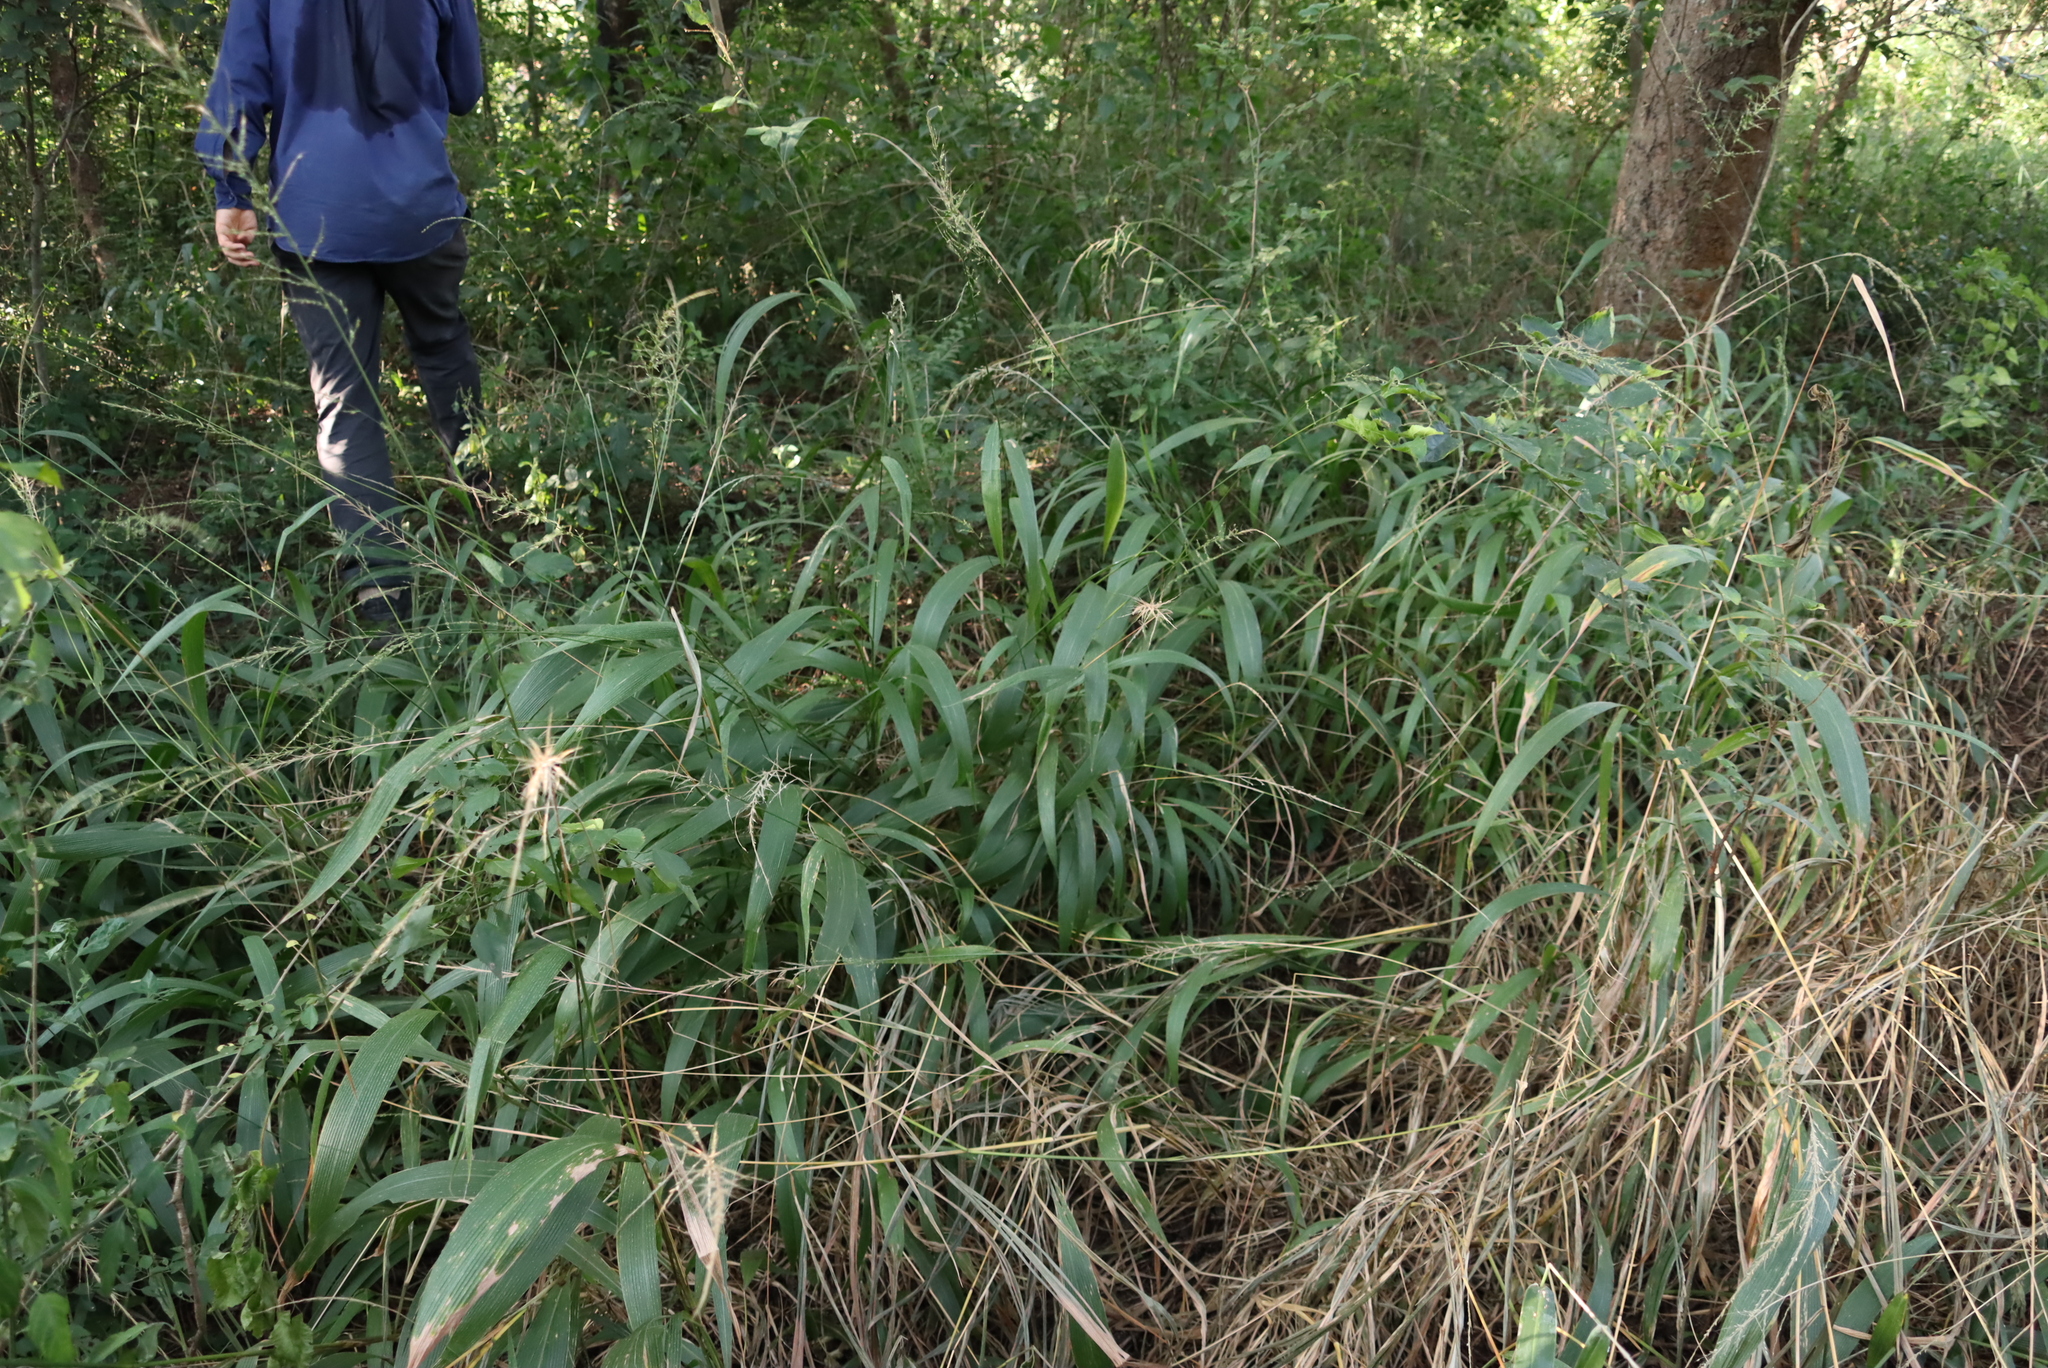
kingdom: Plantae
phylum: Tracheophyta
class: Liliopsida
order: Poales
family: Poaceae
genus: Setaria
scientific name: Setaria megaphylla
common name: Bigleaf bristlegrass
